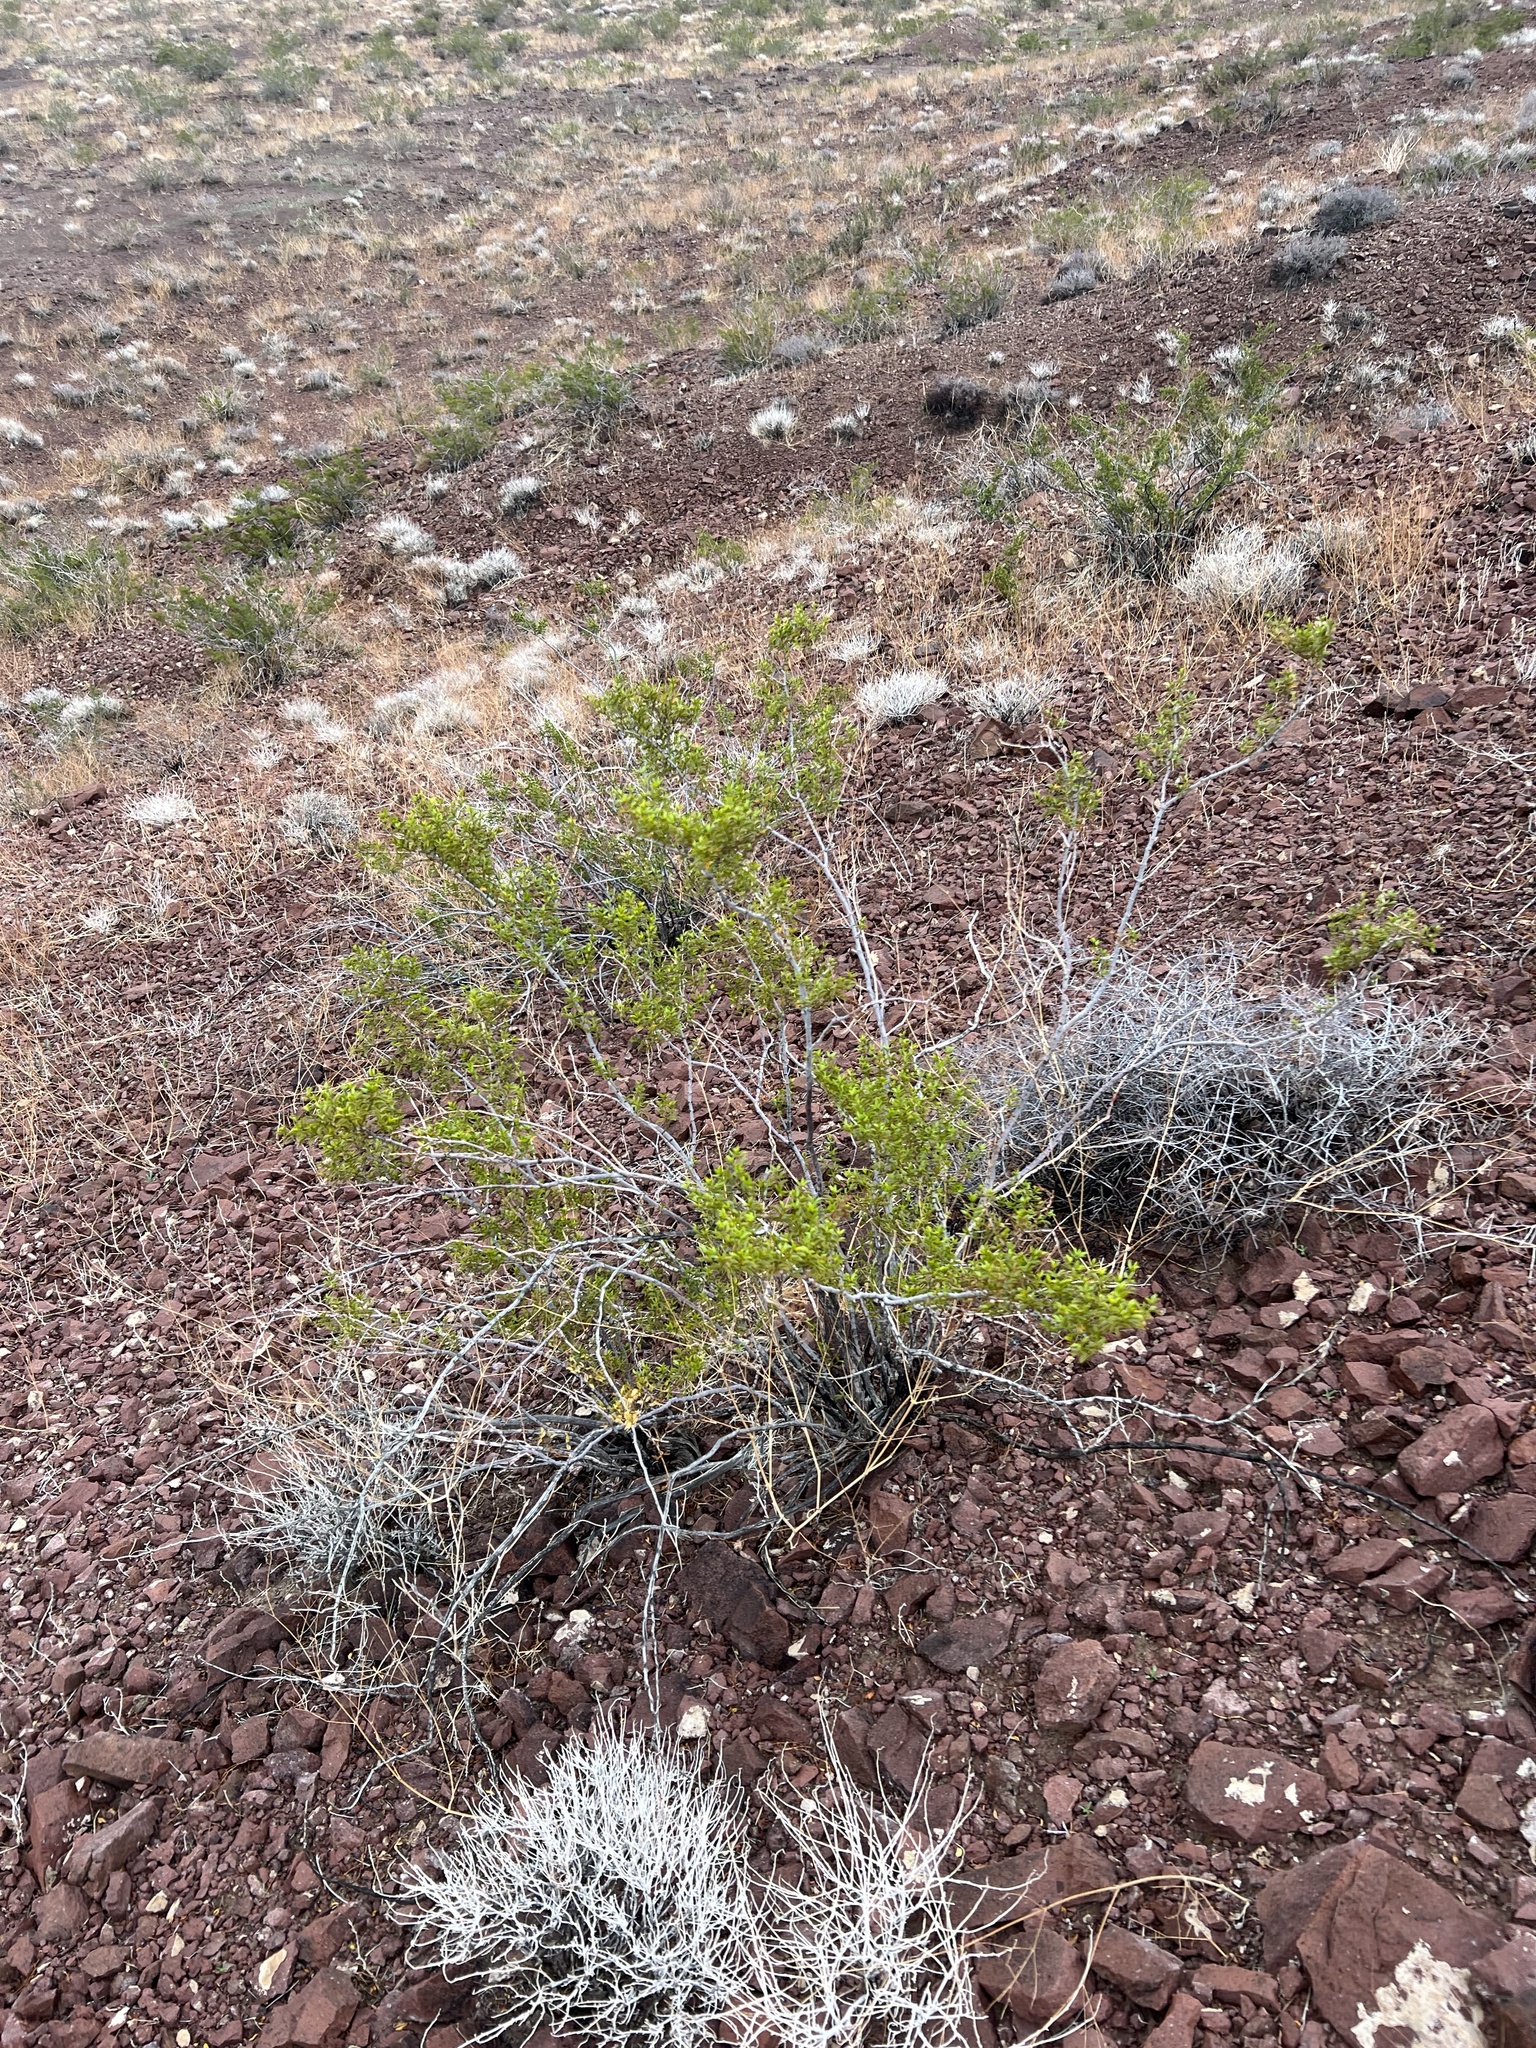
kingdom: Plantae
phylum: Tracheophyta
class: Magnoliopsida
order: Zygophyllales
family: Zygophyllaceae
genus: Larrea
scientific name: Larrea tridentata
